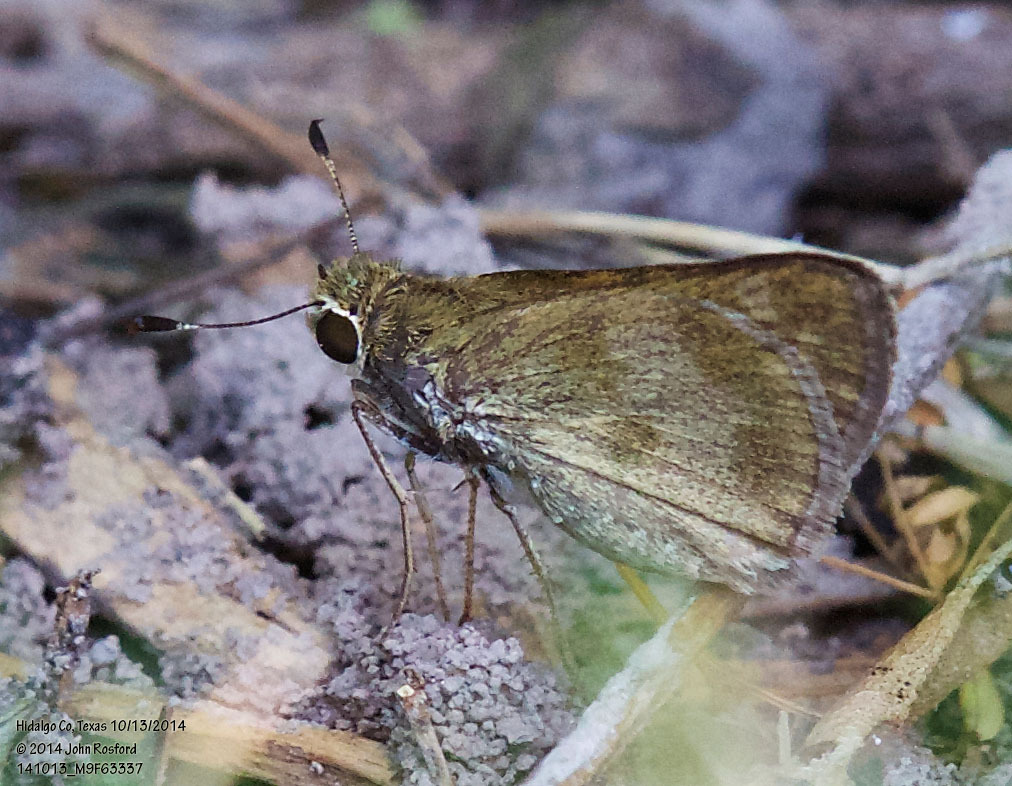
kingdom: Animalia
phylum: Arthropoda
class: Insecta
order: Lepidoptera
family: Hesperiidae
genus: Polites
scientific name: Polites vibex
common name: Whirlabout
